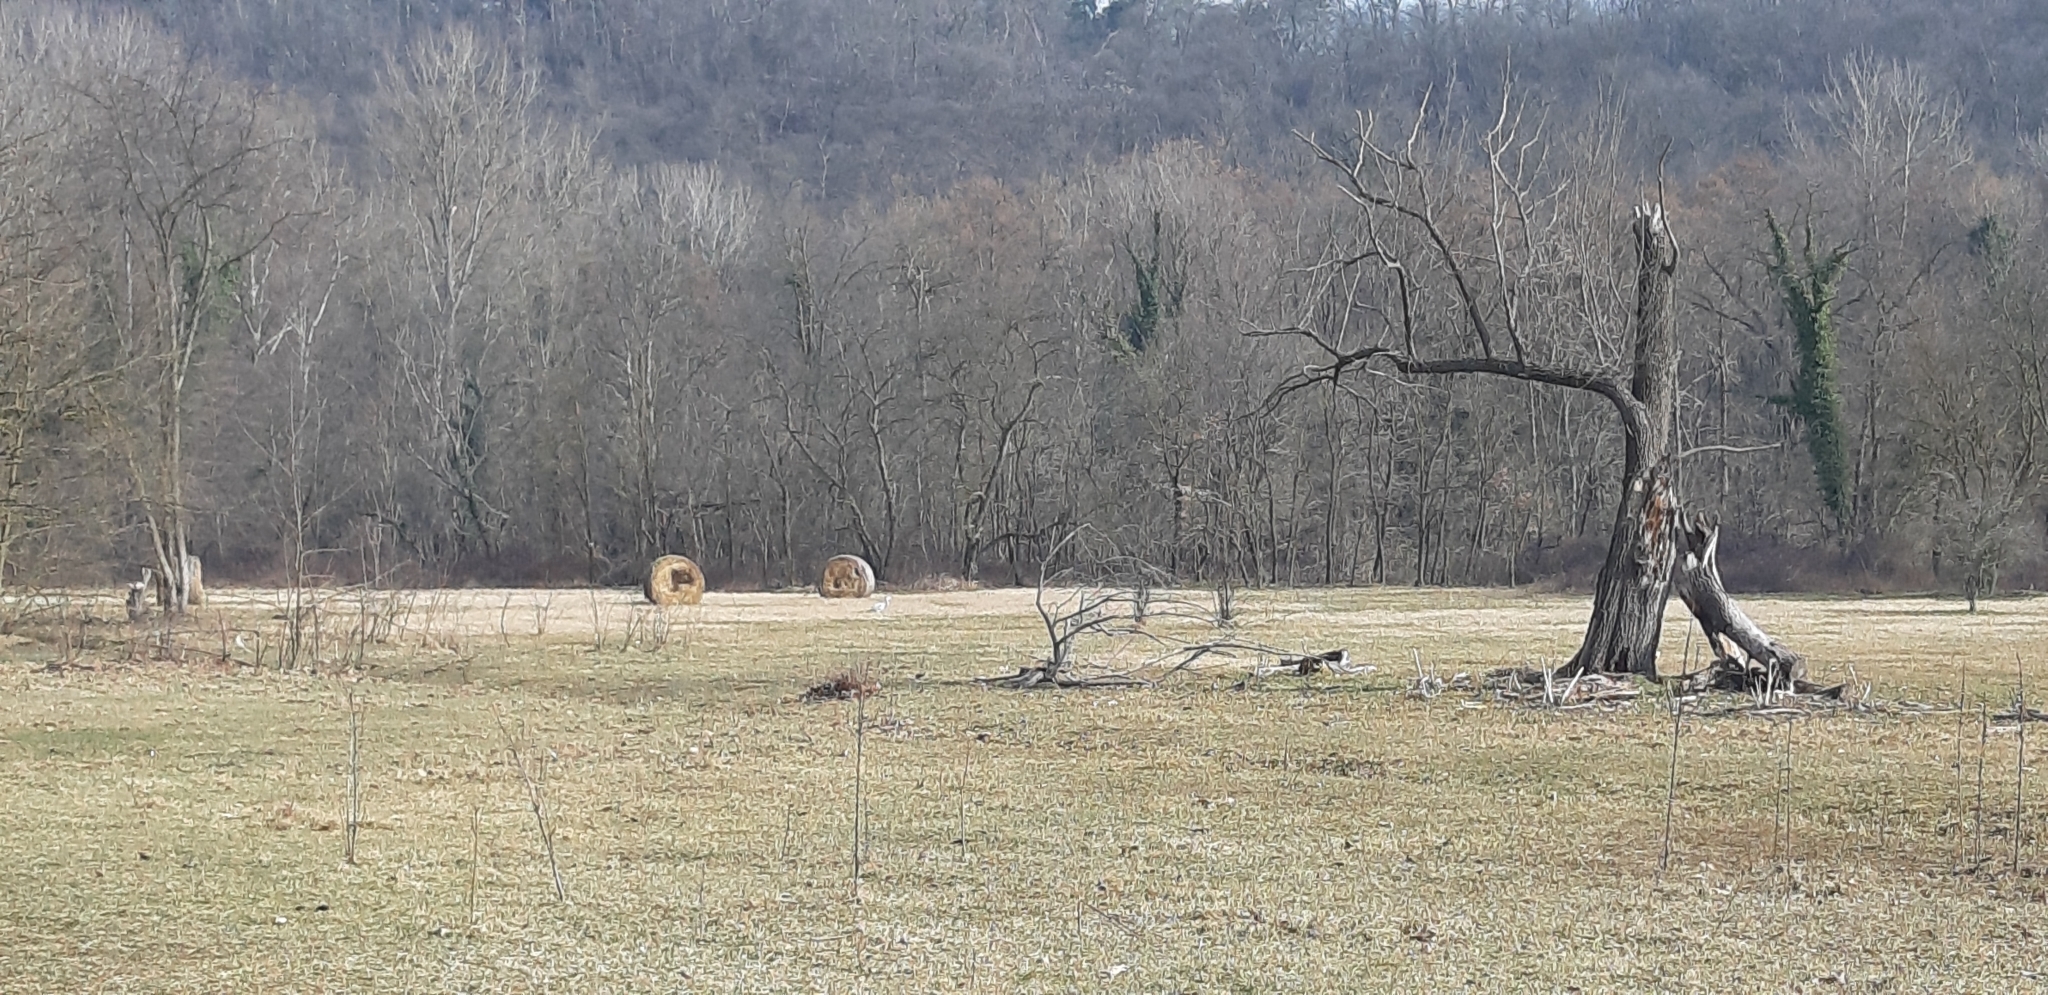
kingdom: Animalia
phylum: Chordata
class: Aves
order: Pelecaniformes
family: Ardeidae
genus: Ardea
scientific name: Ardea cinerea
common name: Grey heron
